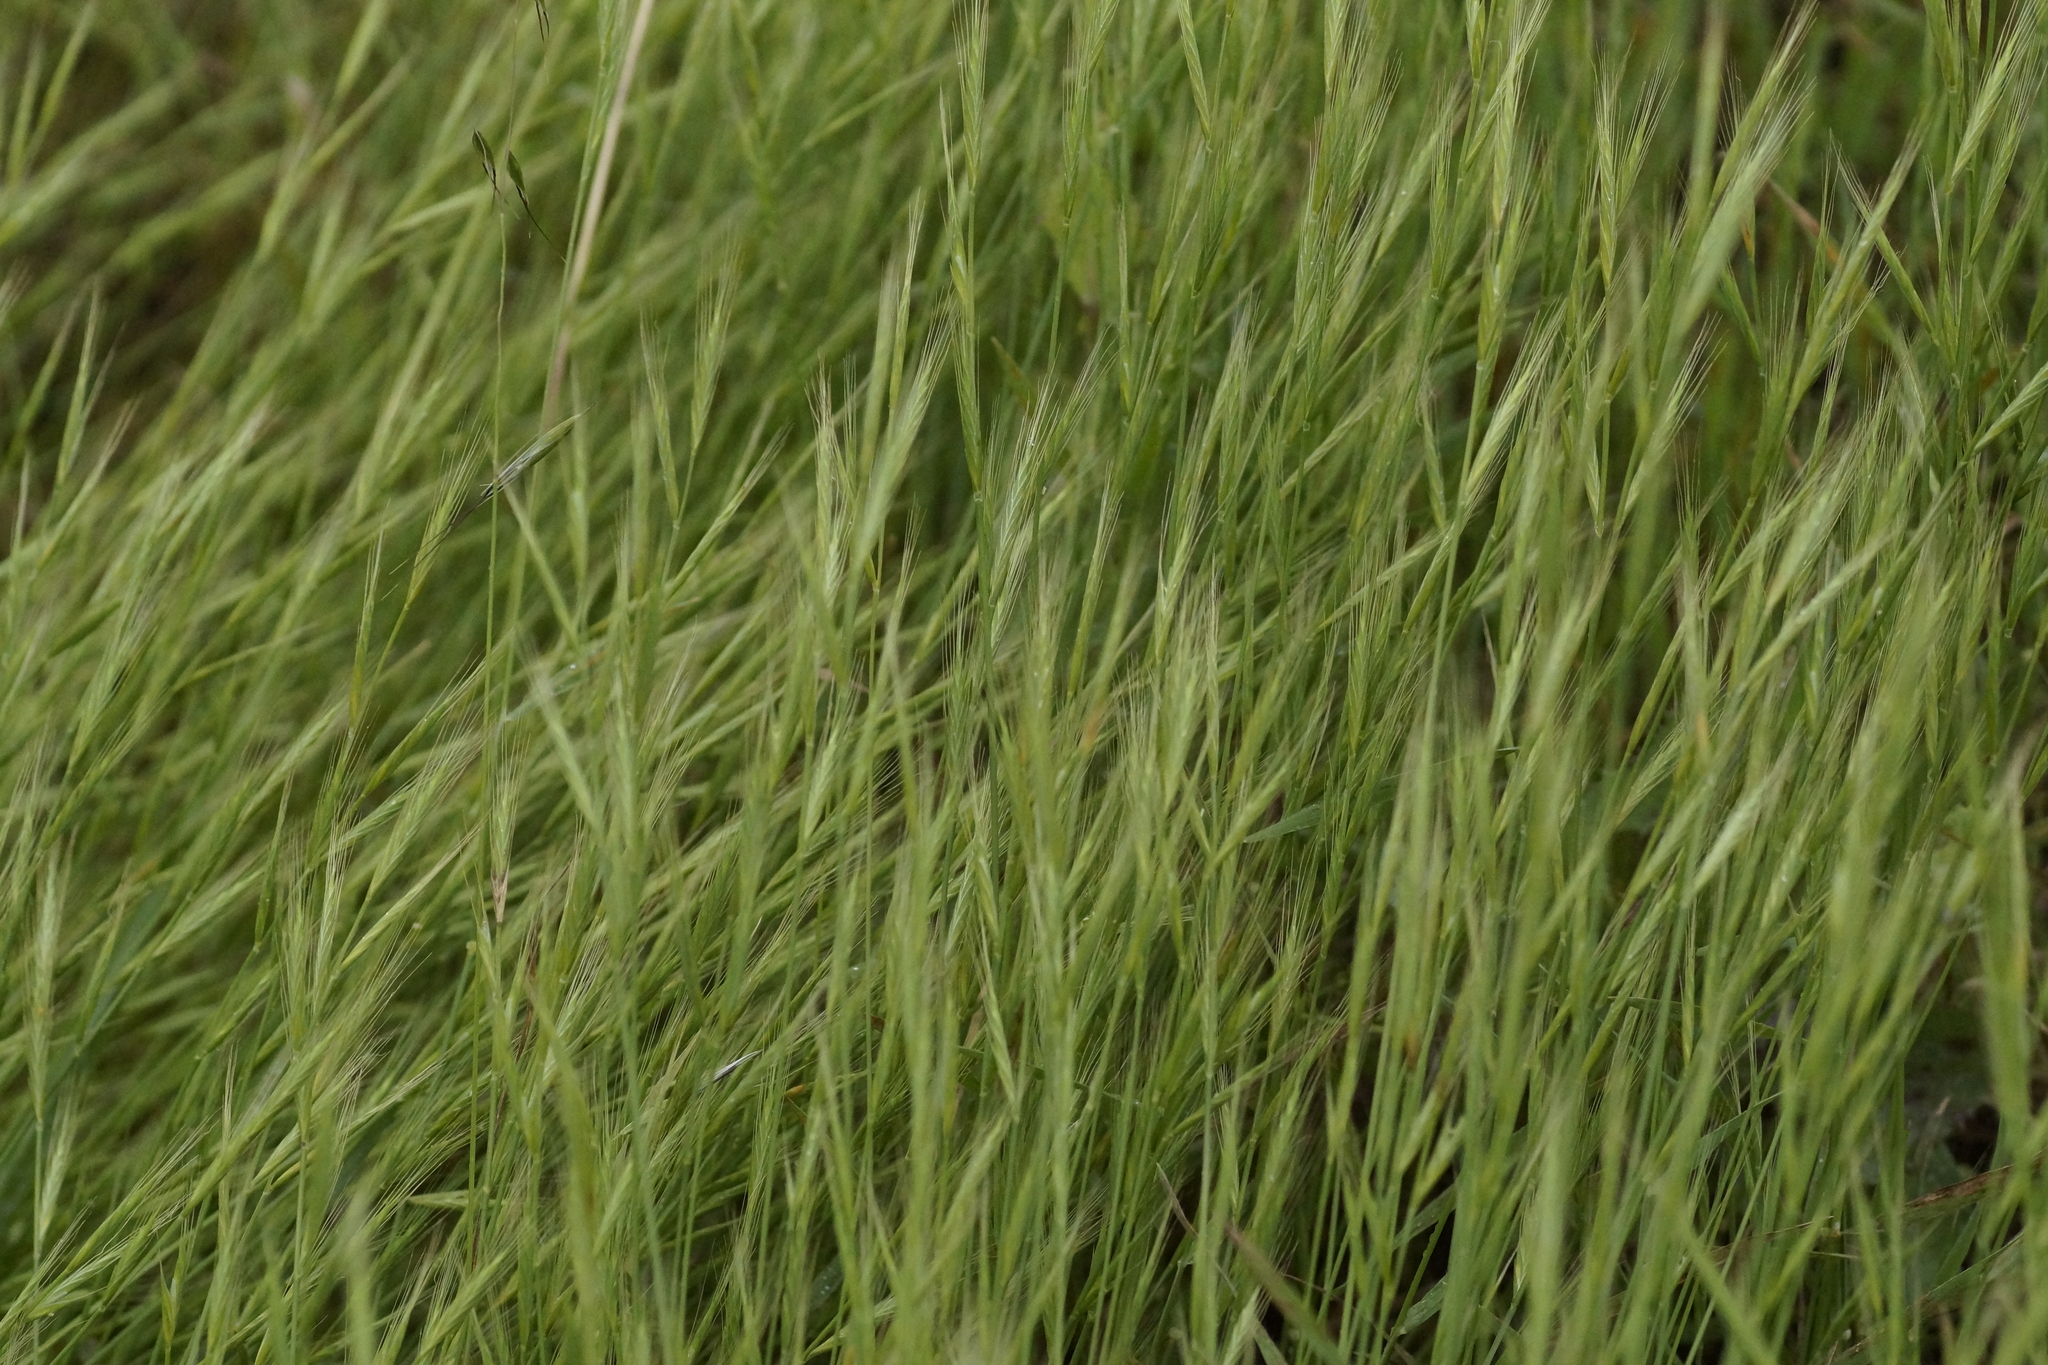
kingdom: Plantae
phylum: Tracheophyta
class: Magnoliopsida
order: Fabales
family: Fabaceae
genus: Vicia
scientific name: Vicia sativa
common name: Garden vetch
